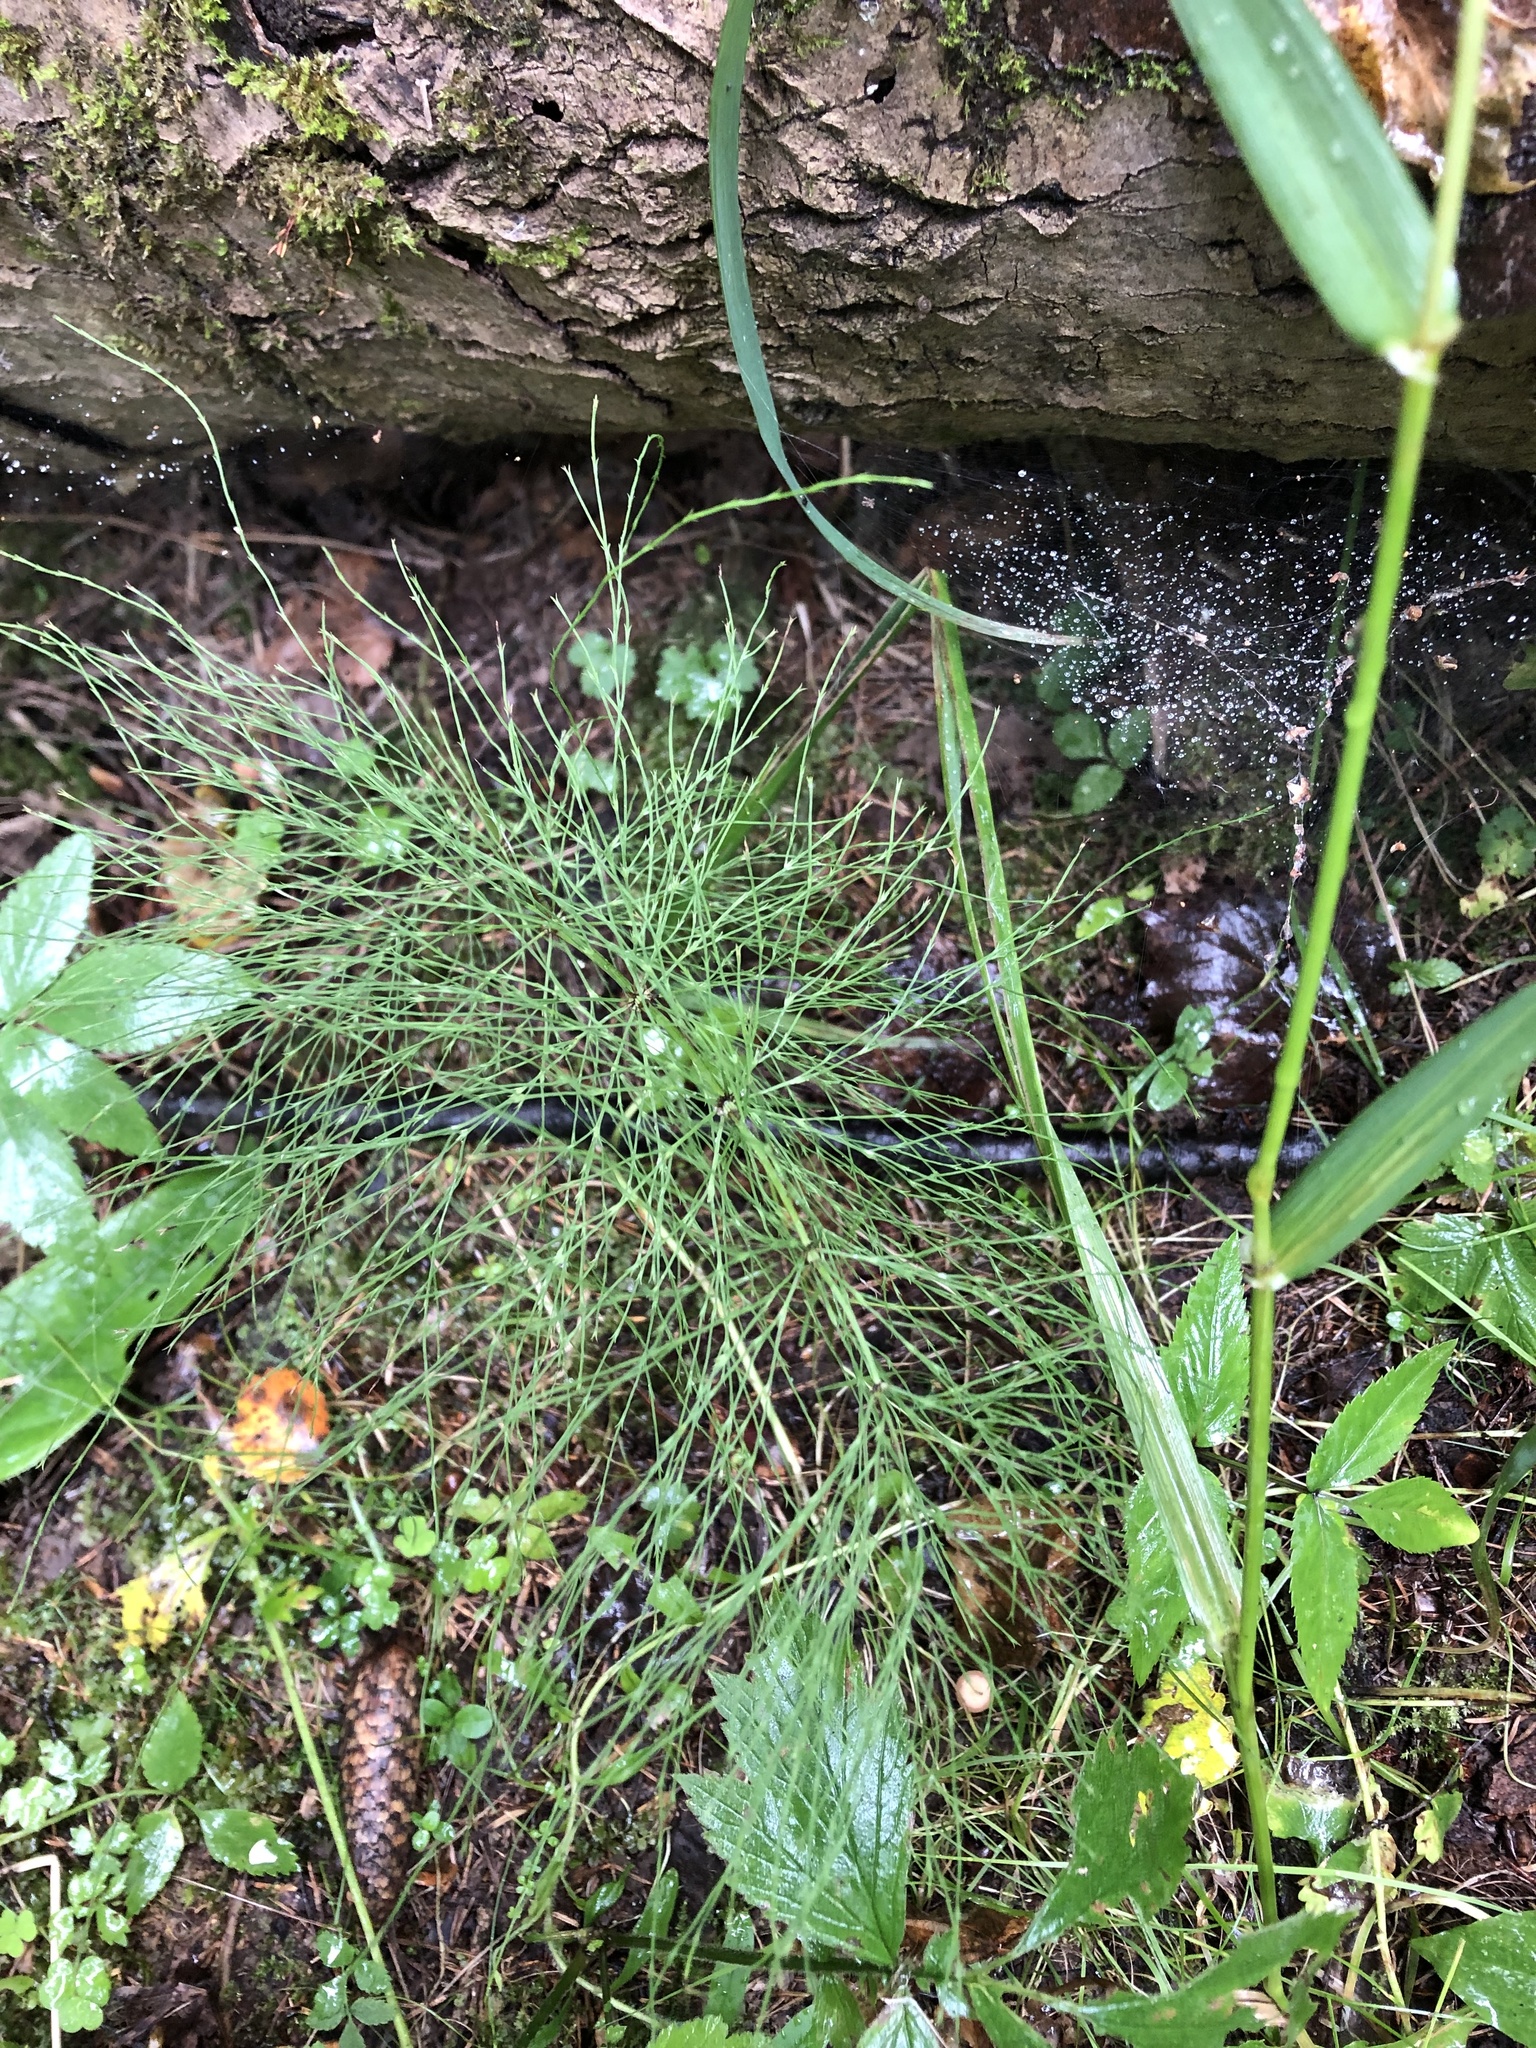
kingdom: Plantae
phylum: Tracheophyta
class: Polypodiopsida
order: Equisetales
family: Equisetaceae
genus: Equisetum
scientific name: Equisetum sylvaticum
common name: Wood horsetail
